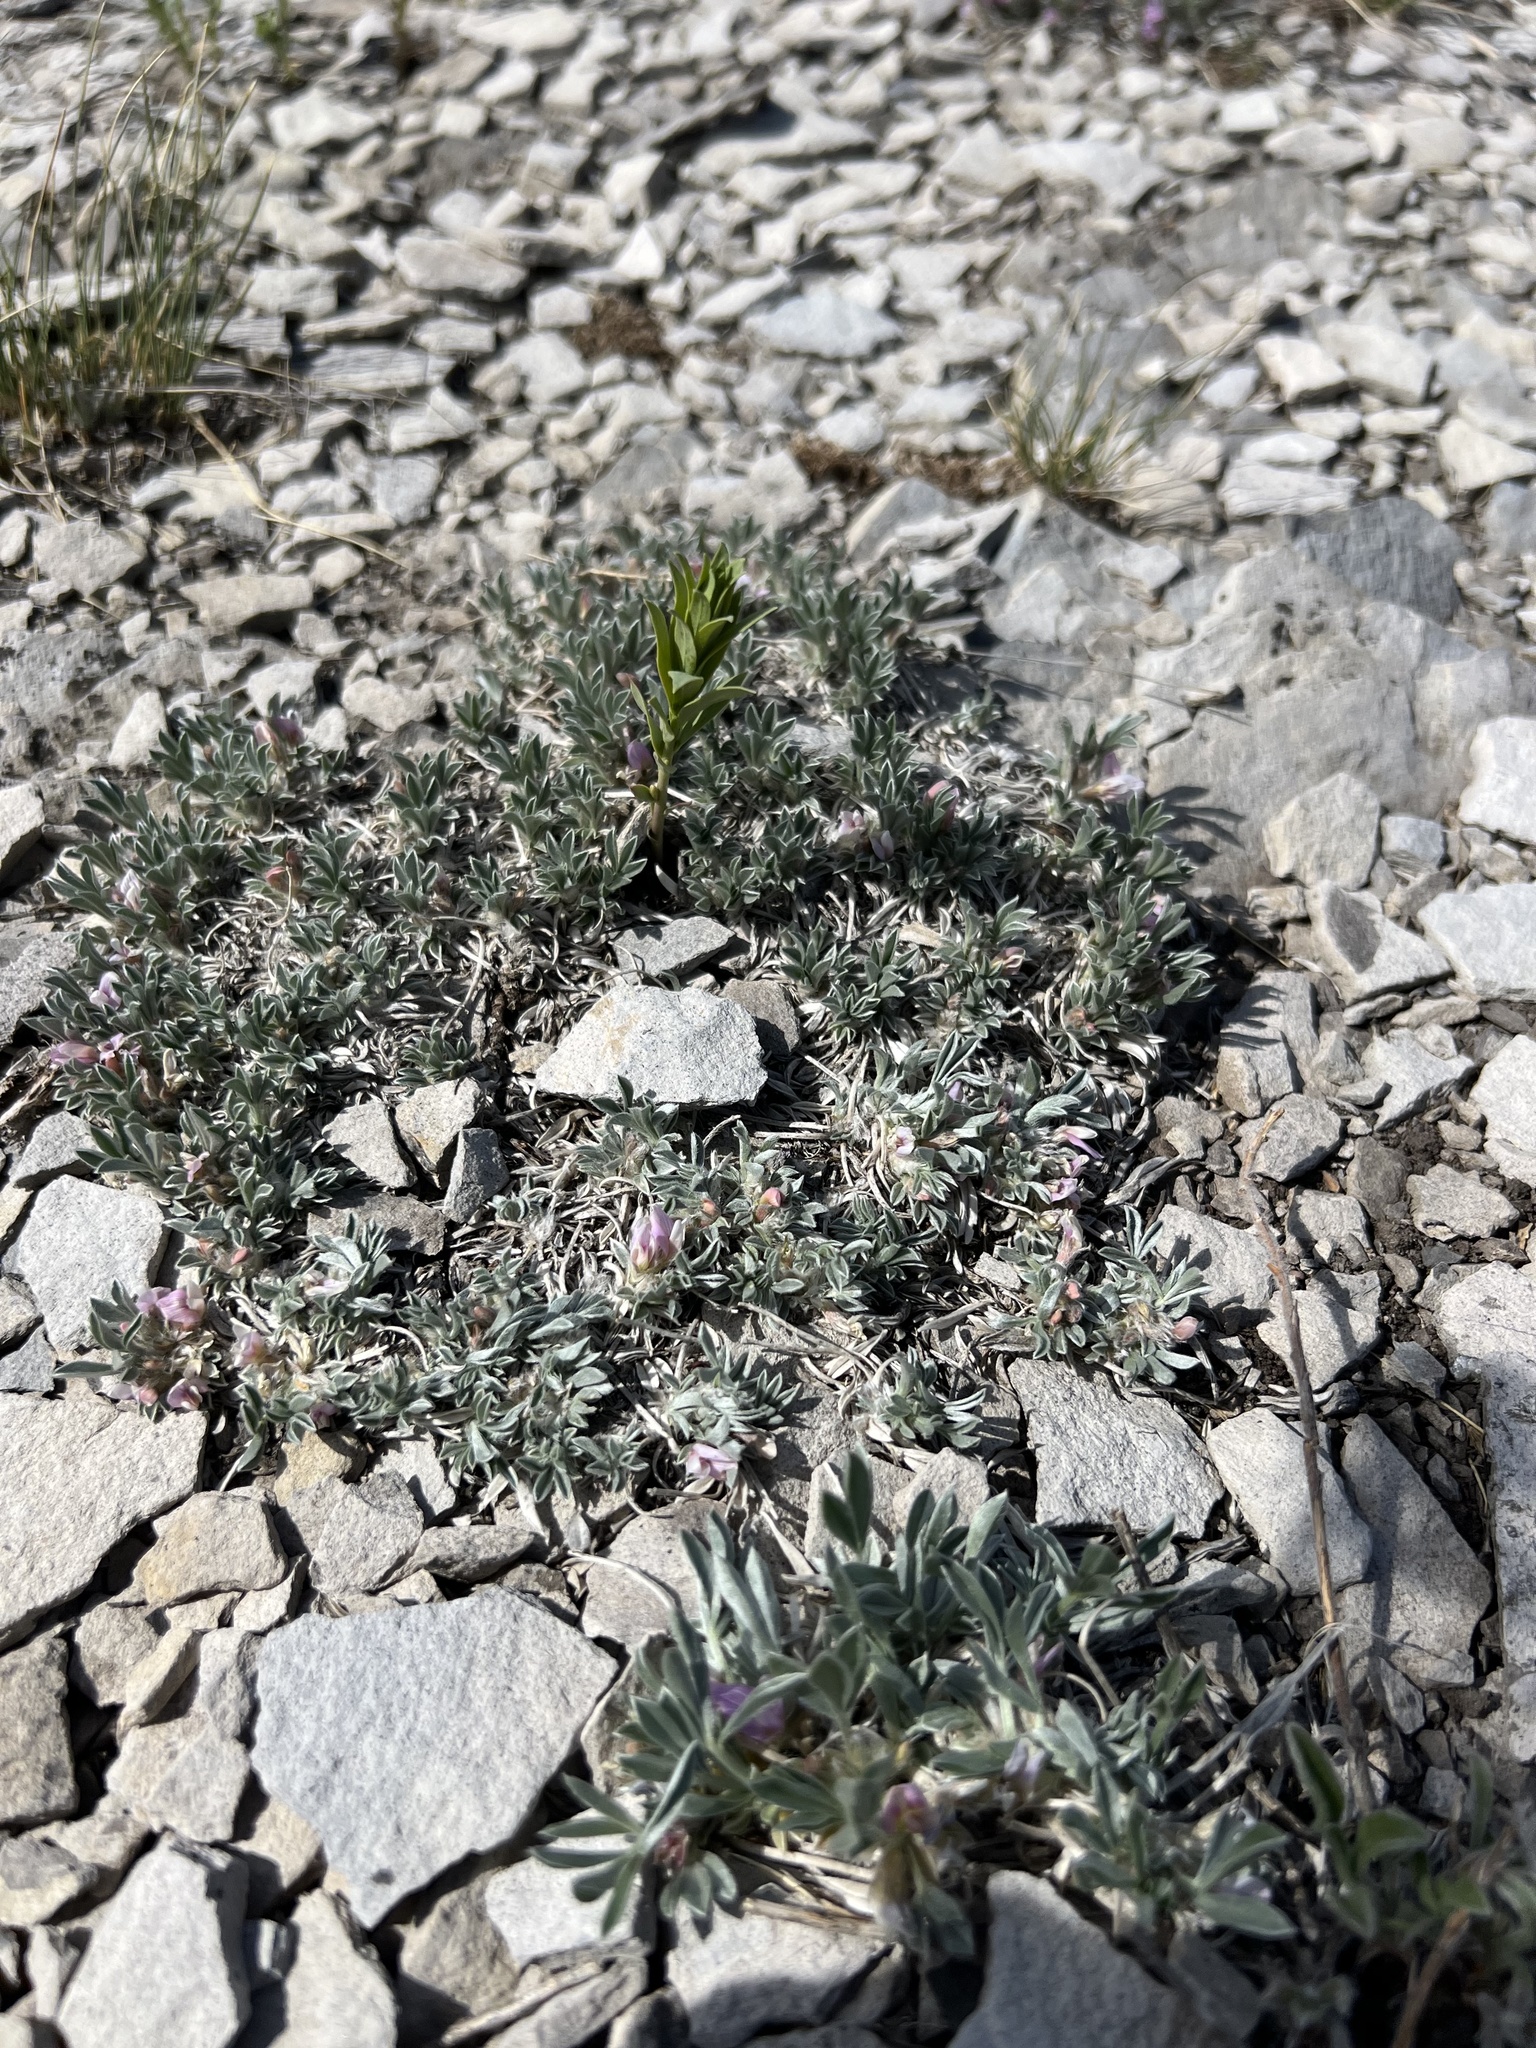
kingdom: Plantae
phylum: Tracheophyta
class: Magnoliopsida
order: Fabales
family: Fabaceae
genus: Astragalus
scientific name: Astragalus tridactylicus
